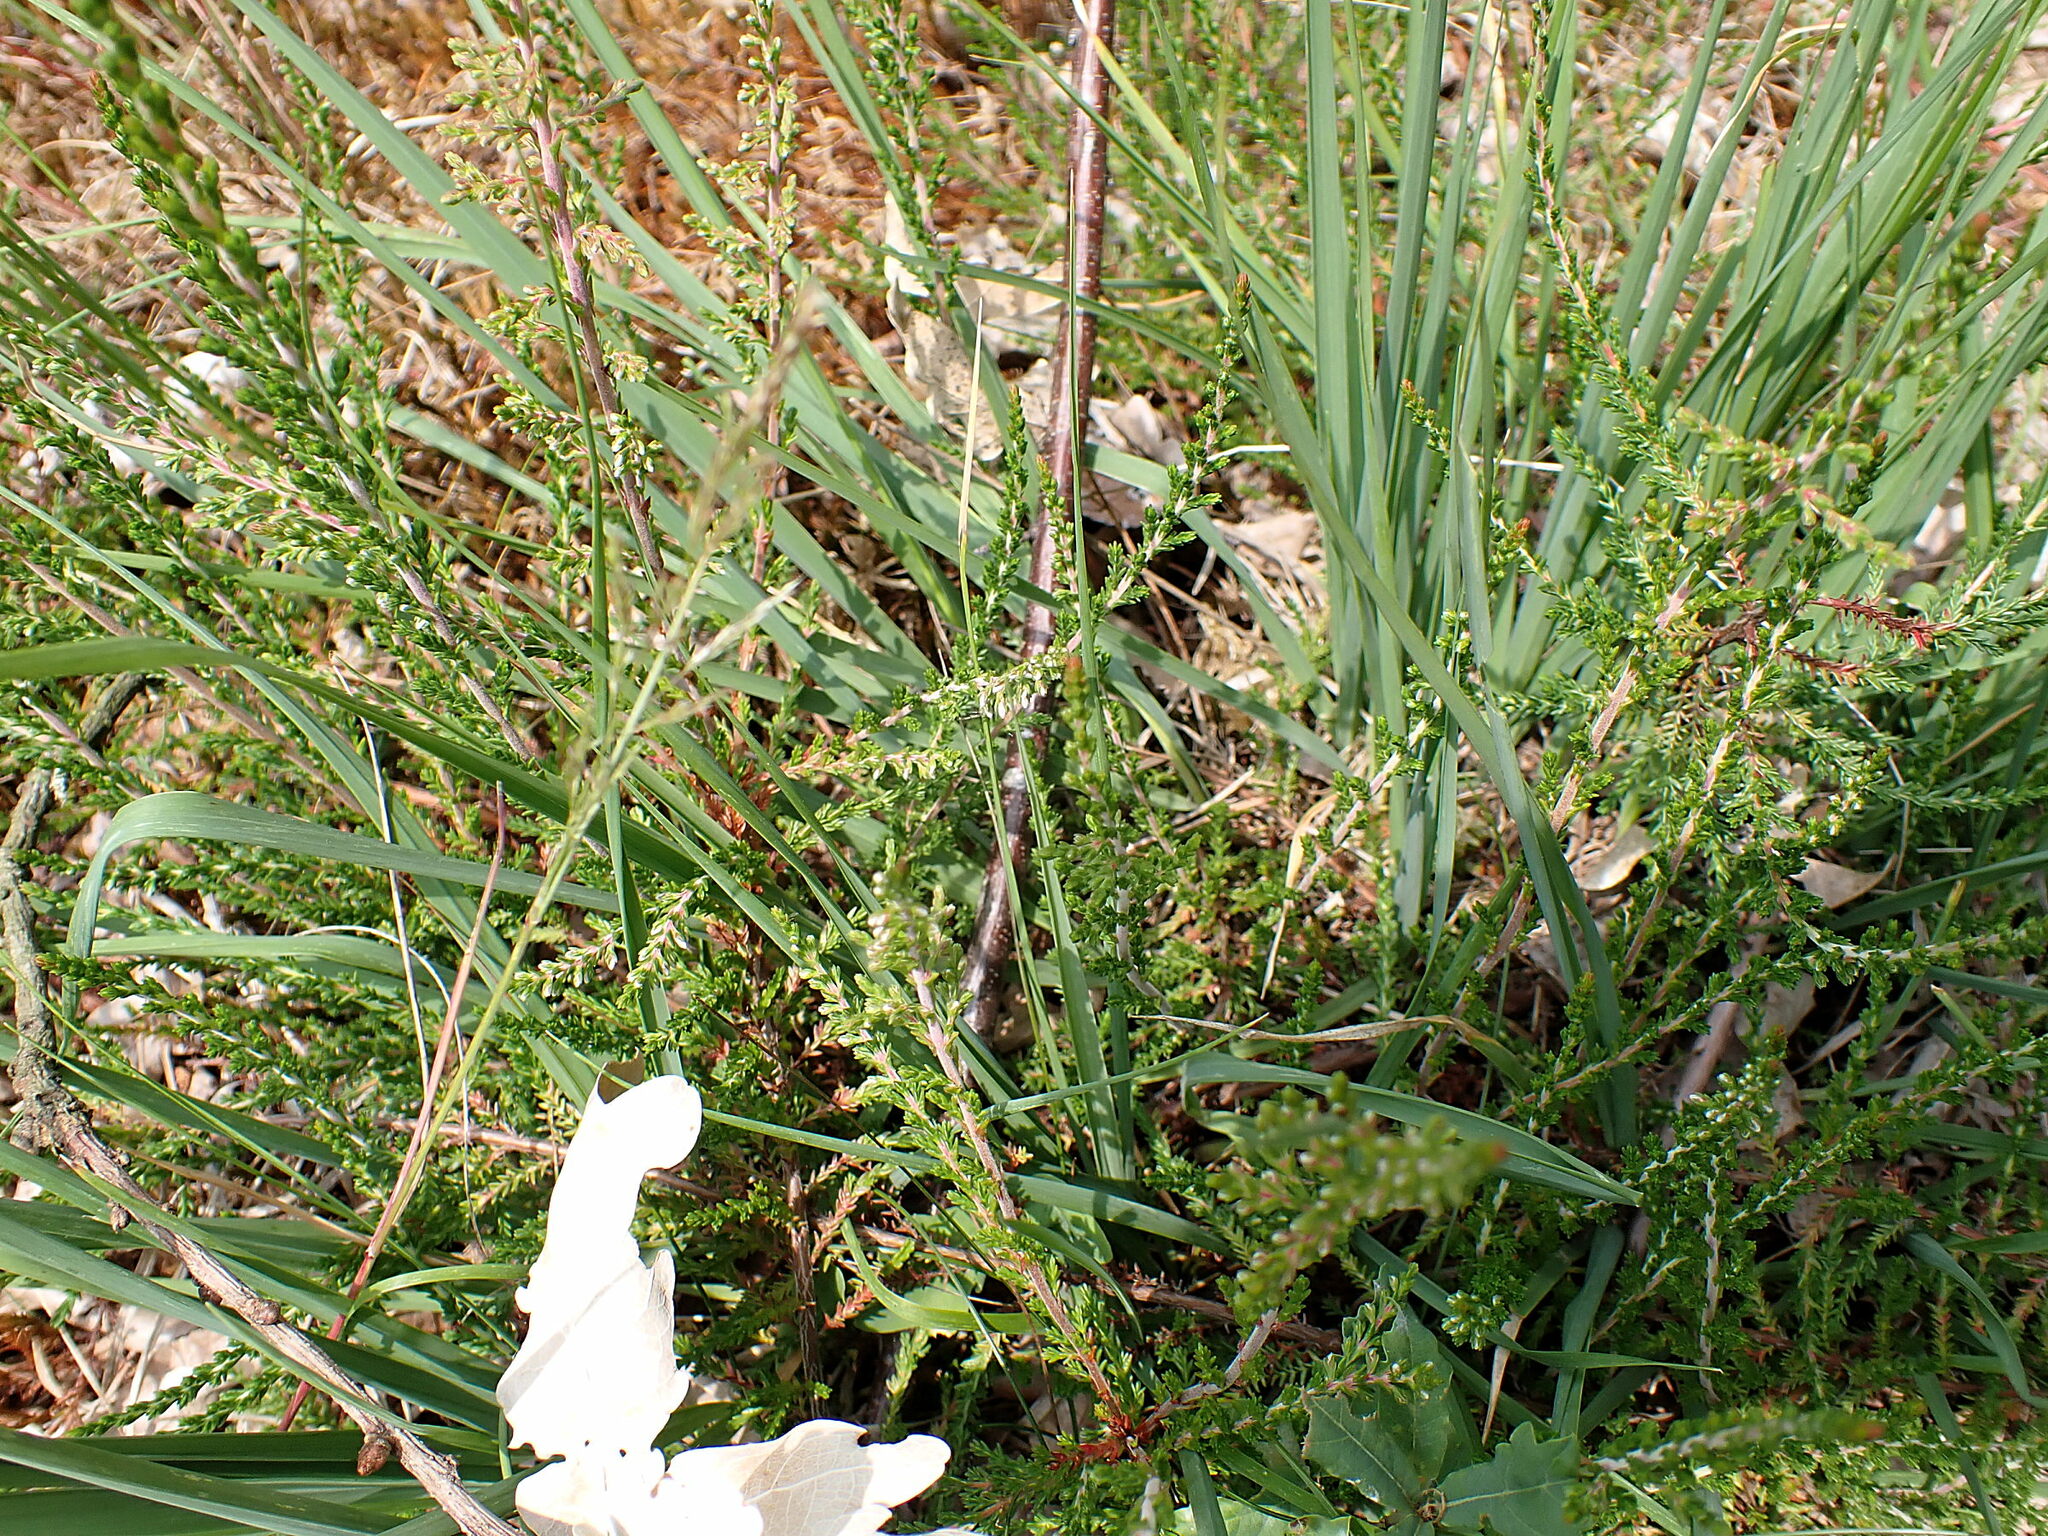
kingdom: Plantae
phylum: Tracheophyta
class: Magnoliopsida
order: Ericales
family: Ericaceae
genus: Calluna
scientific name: Calluna vulgaris
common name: Heather
